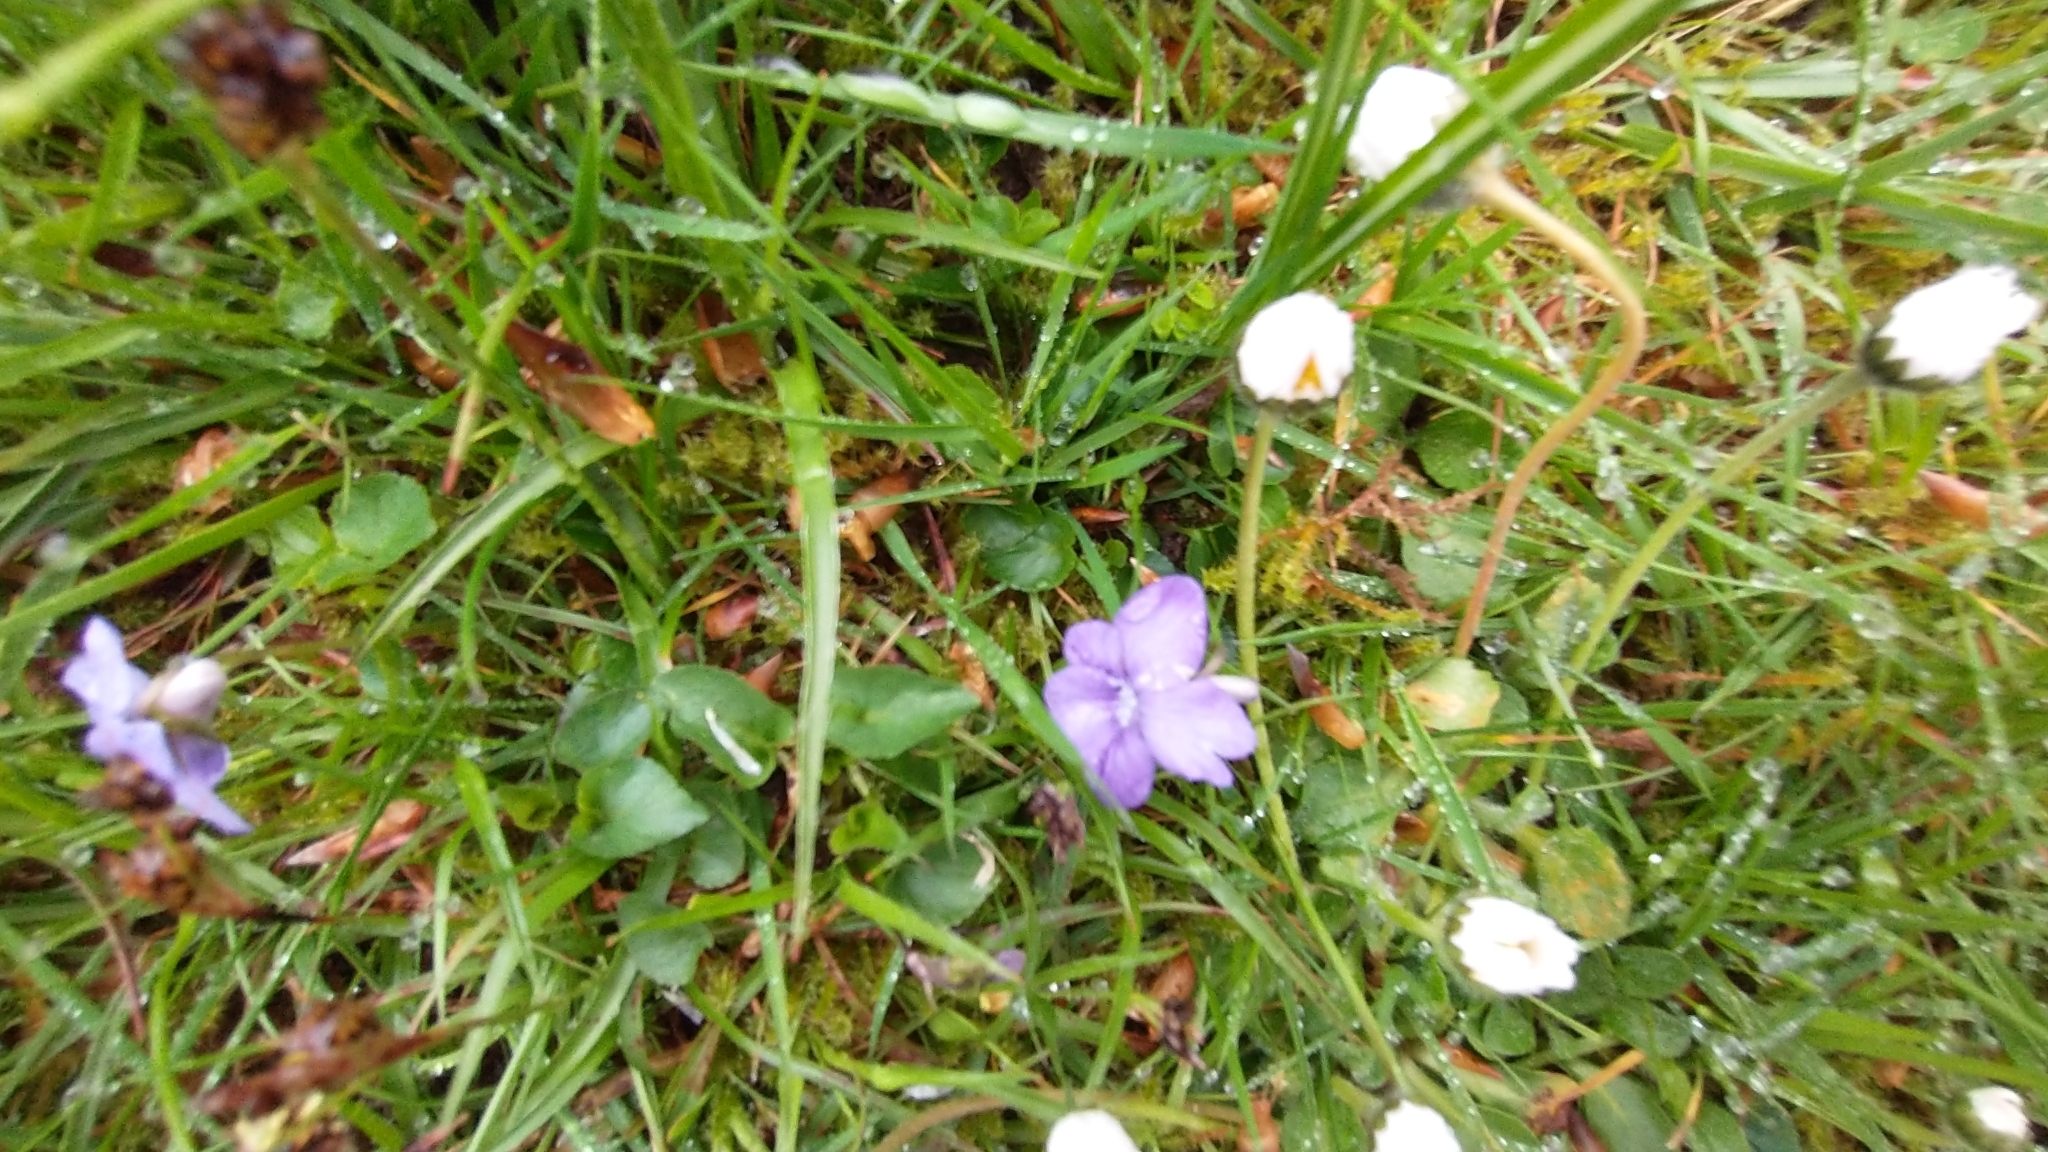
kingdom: Plantae
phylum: Tracheophyta
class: Magnoliopsida
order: Malpighiales
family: Violaceae
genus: Viola
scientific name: Viola riviniana
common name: Common dog-violet
